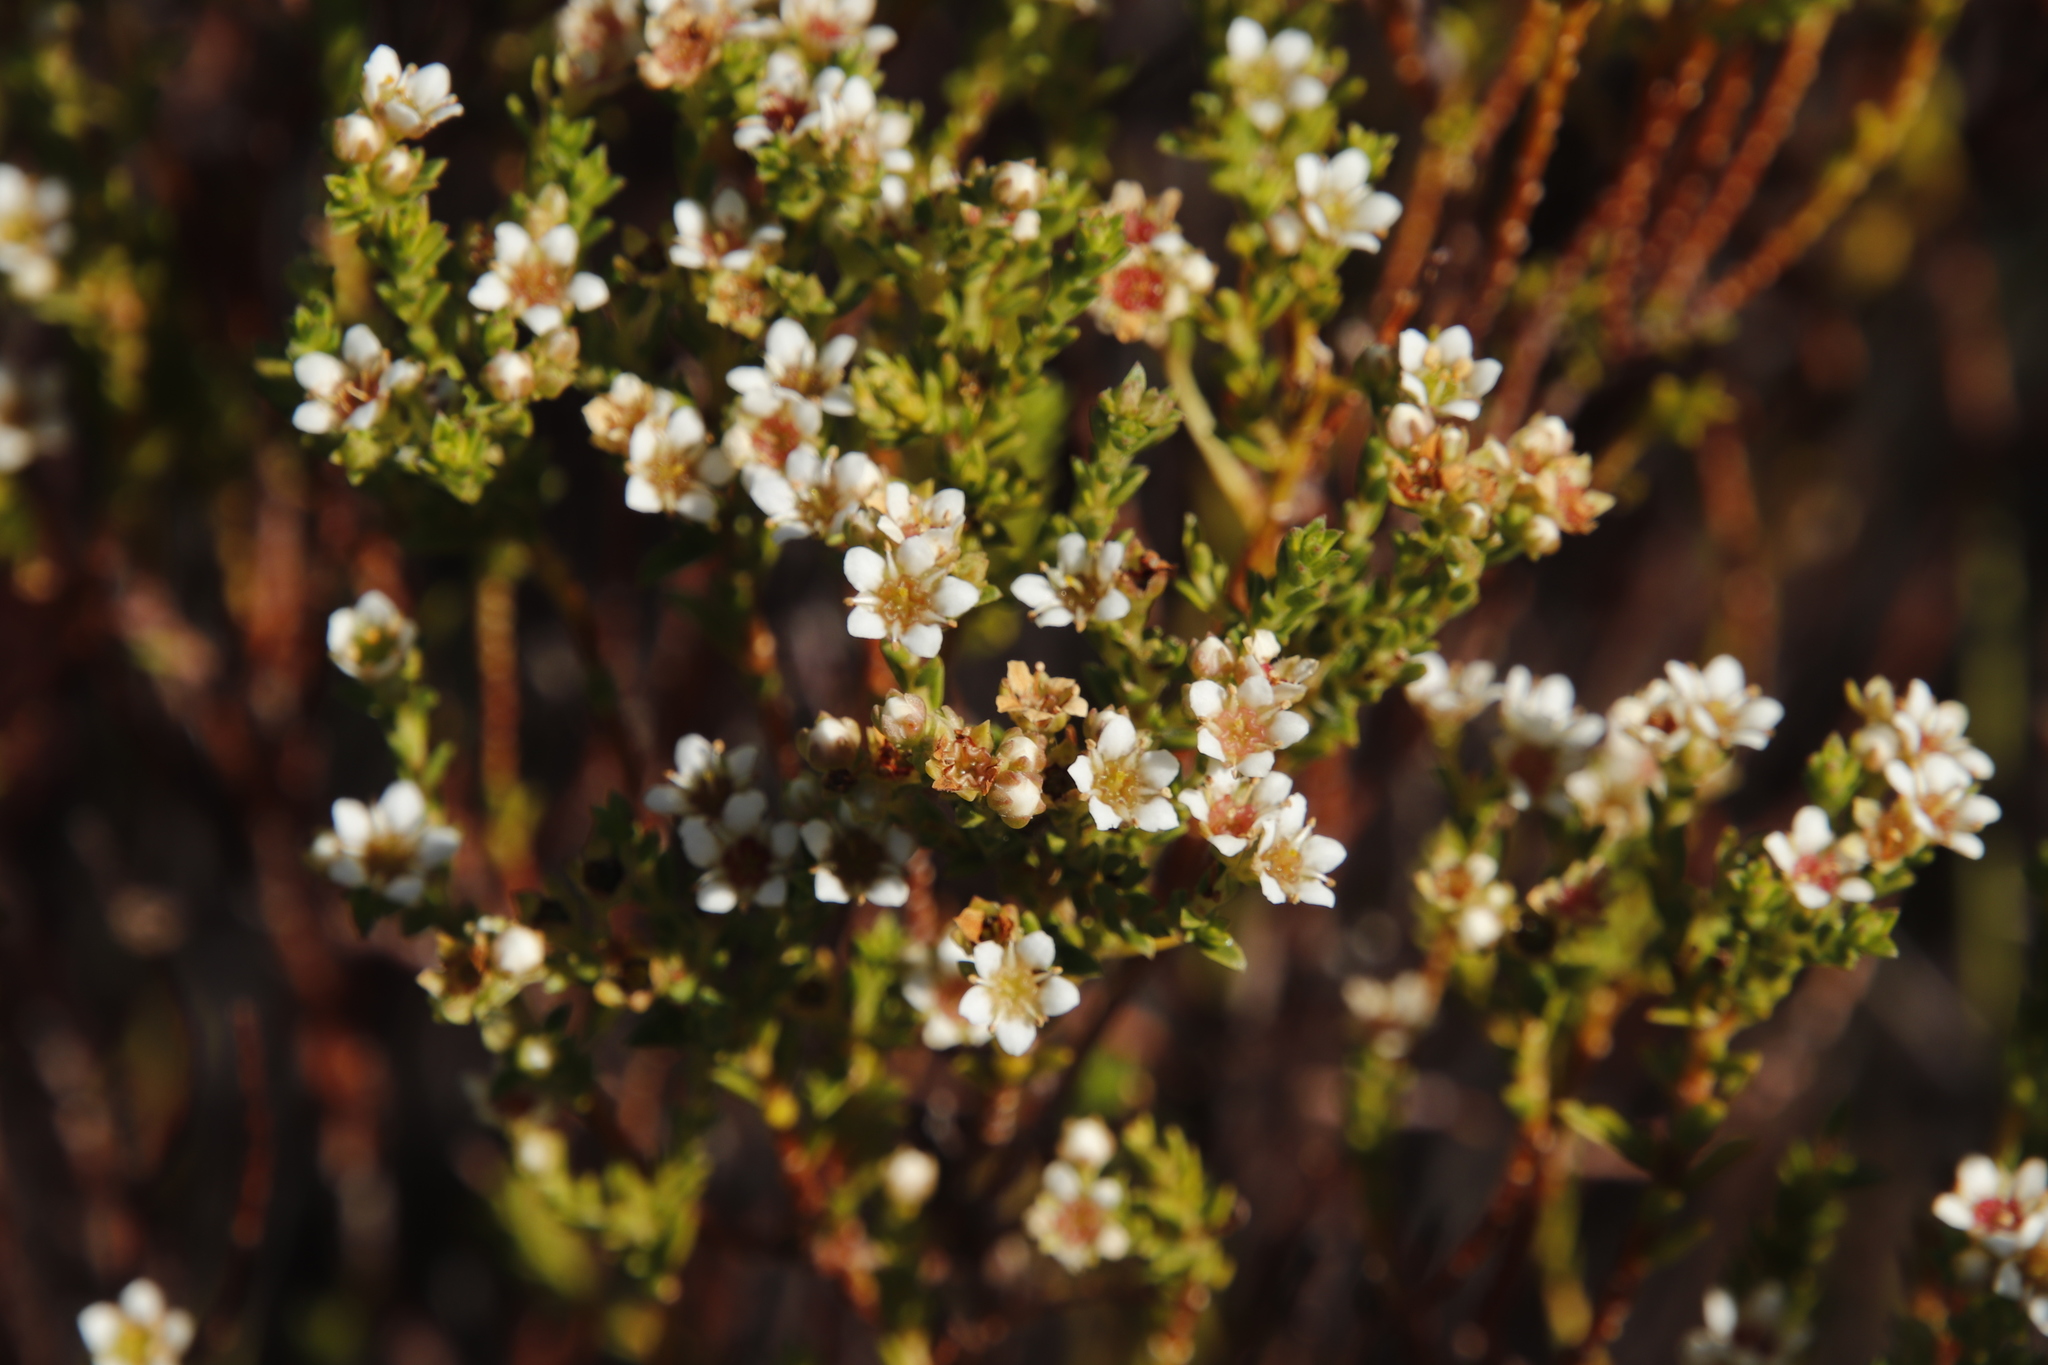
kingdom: Plantae
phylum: Tracheophyta
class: Magnoliopsida
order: Sapindales
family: Rutaceae
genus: Diosma
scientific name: Diosma oppositifolia
